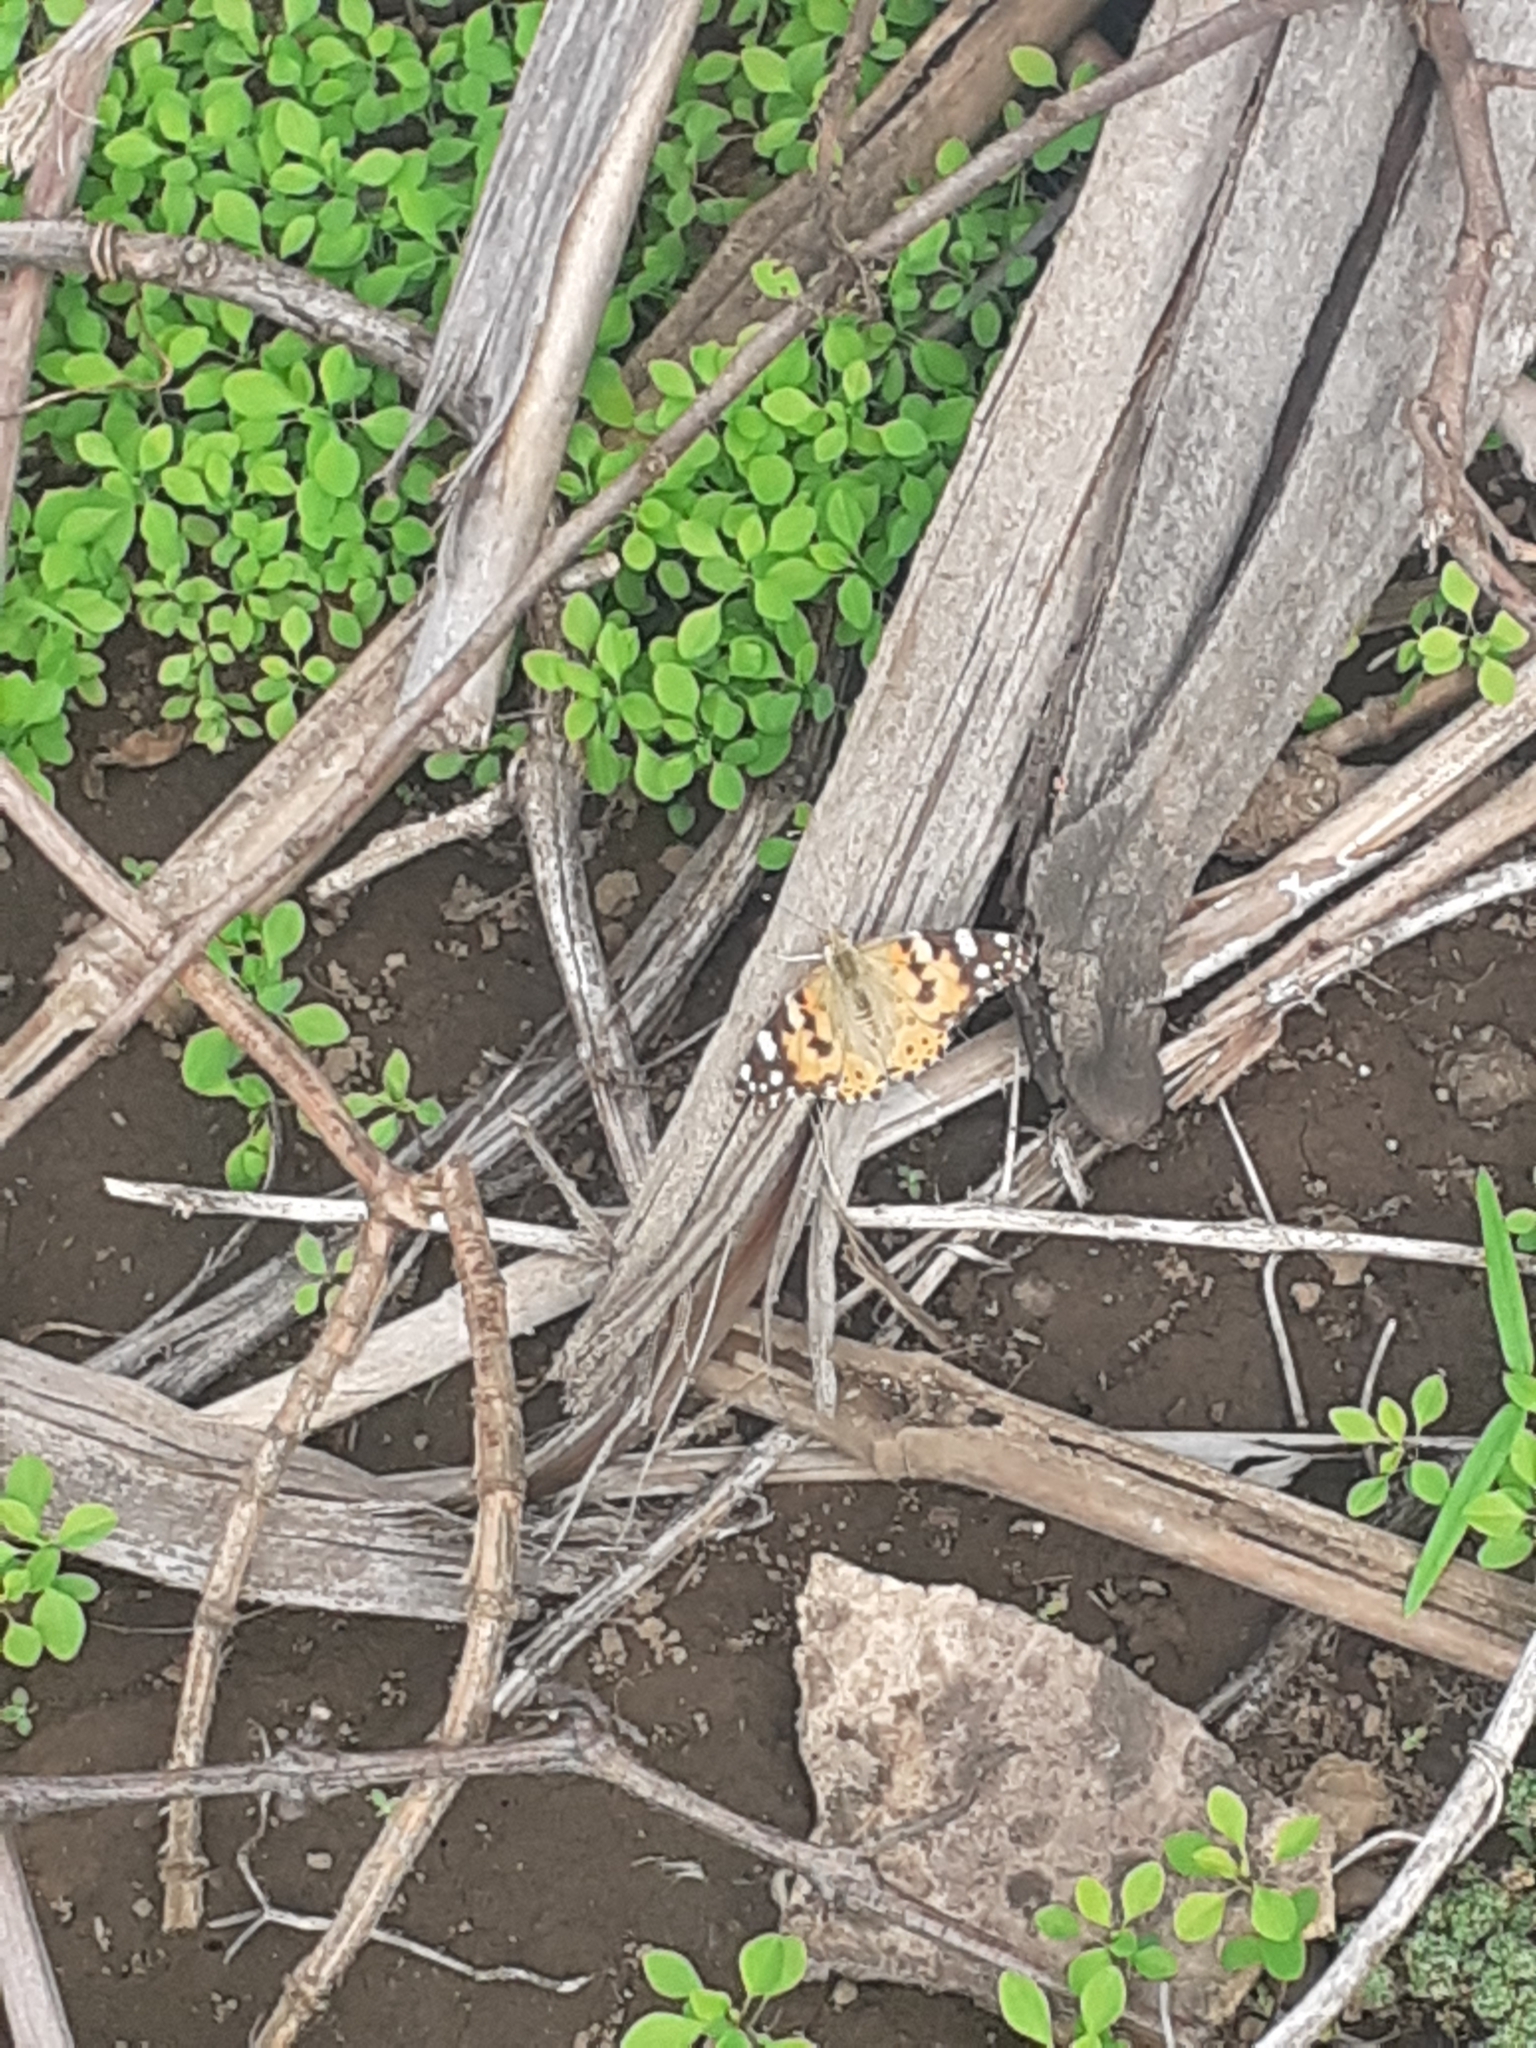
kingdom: Animalia
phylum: Arthropoda
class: Insecta
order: Lepidoptera
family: Nymphalidae
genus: Vanessa
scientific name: Vanessa cardui
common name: Painted lady
